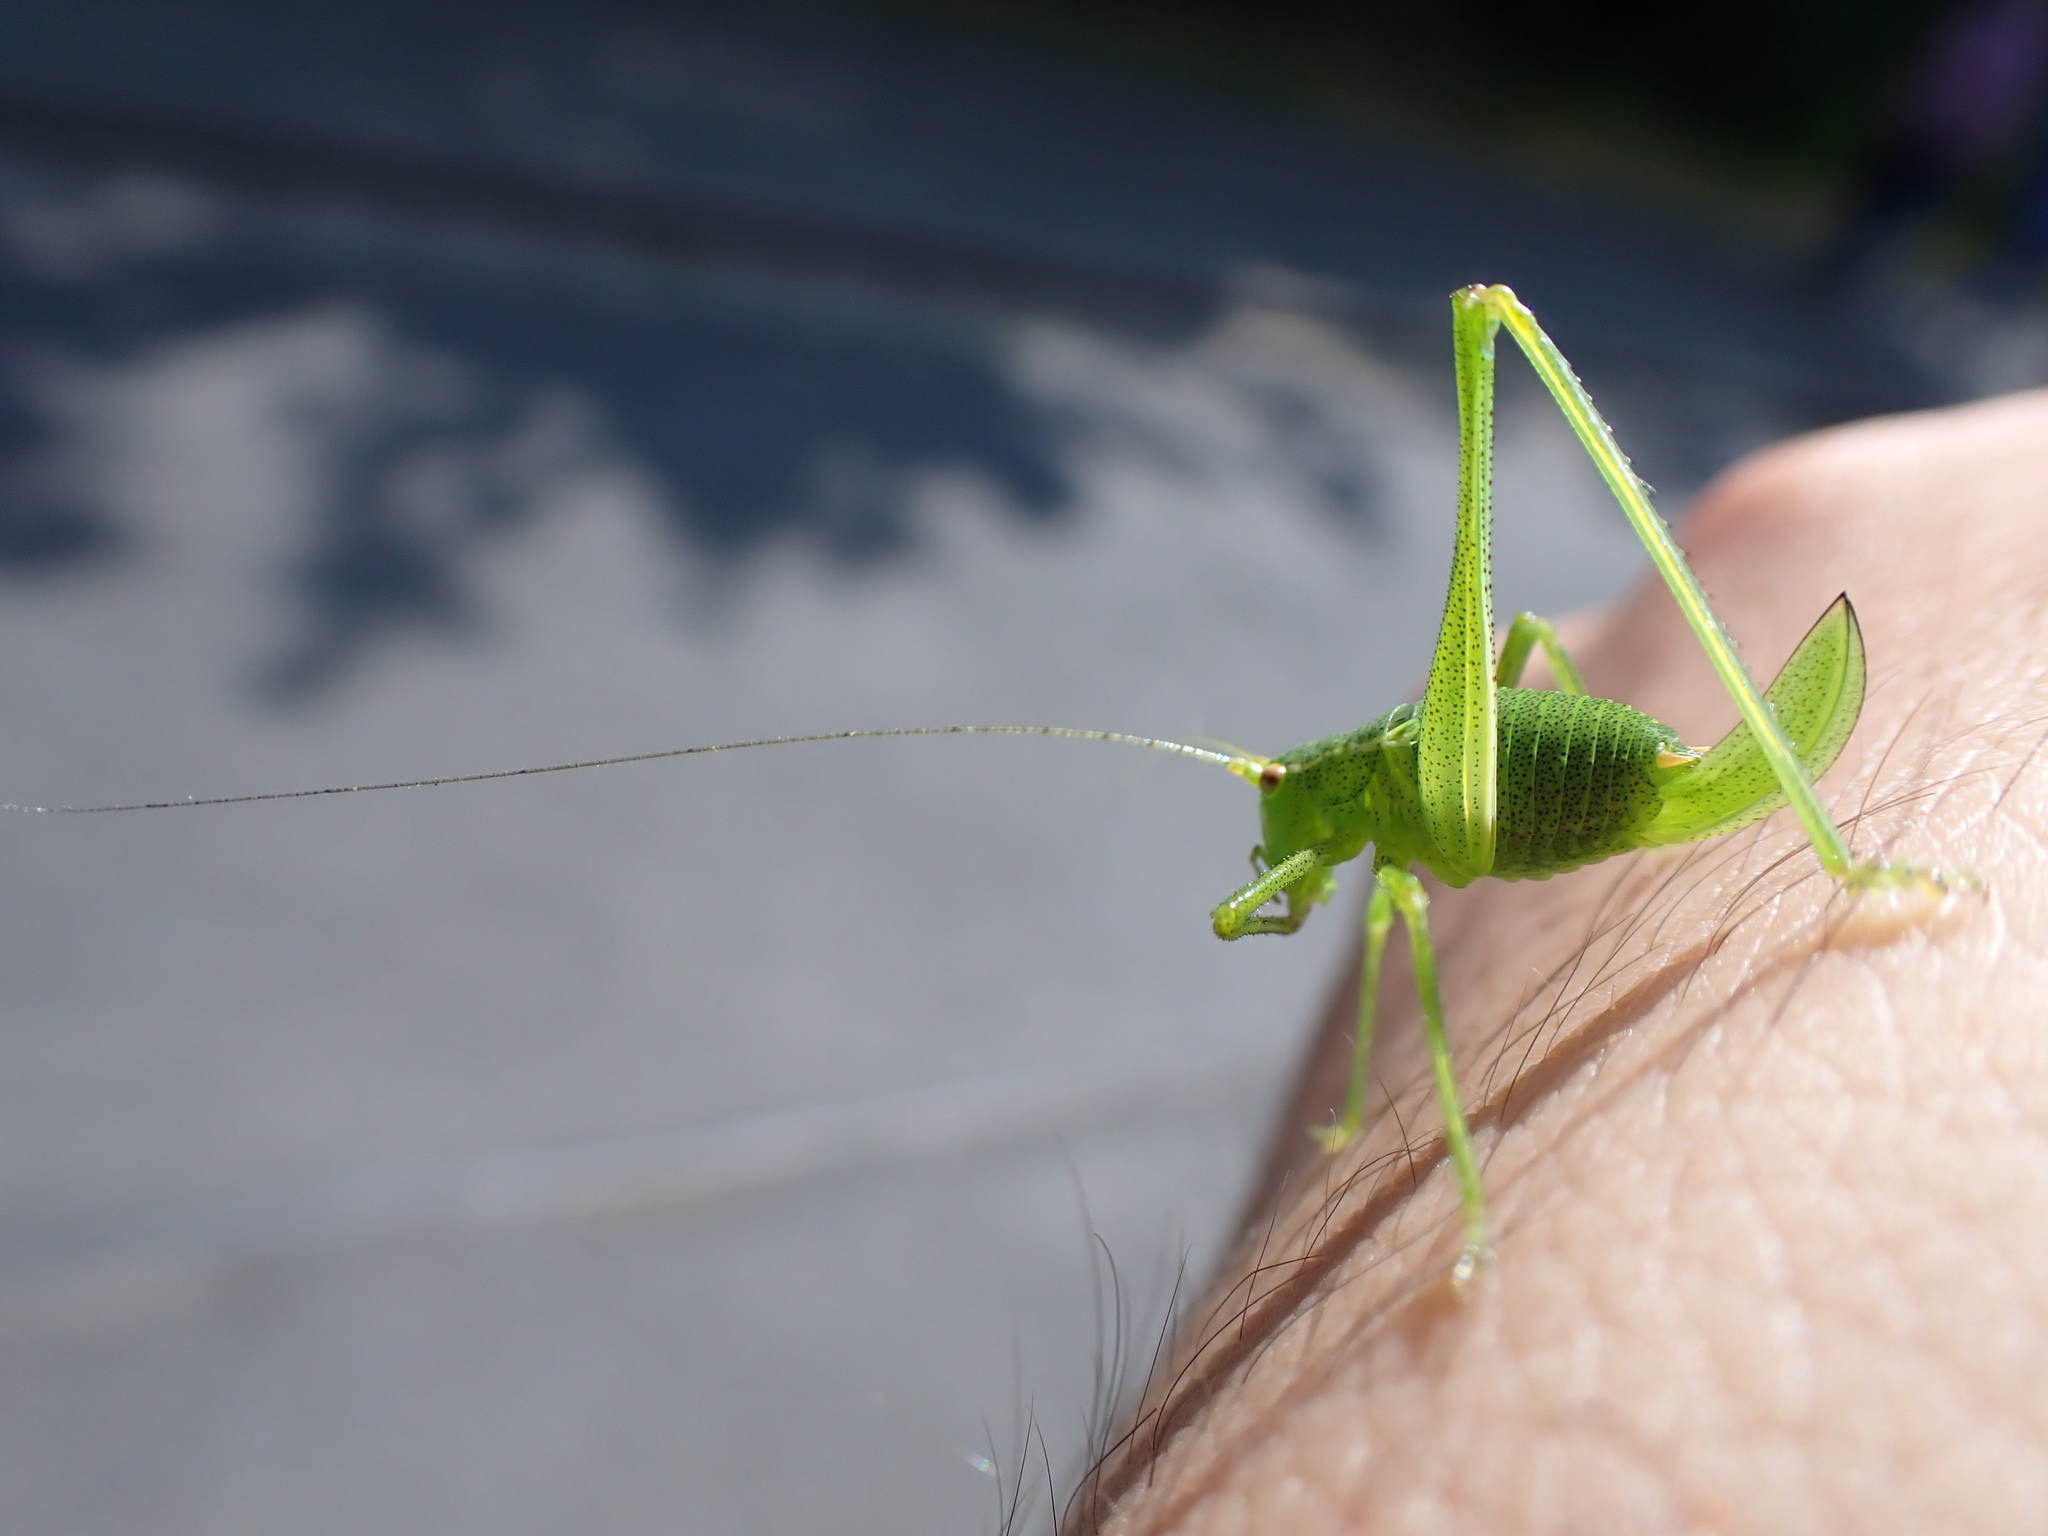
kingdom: Animalia
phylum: Arthropoda
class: Insecta
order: Orthoptera
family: Tettigoniidae
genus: Leptophyes
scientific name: Leptophyes punctatissima
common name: Speckled bush-cricket
